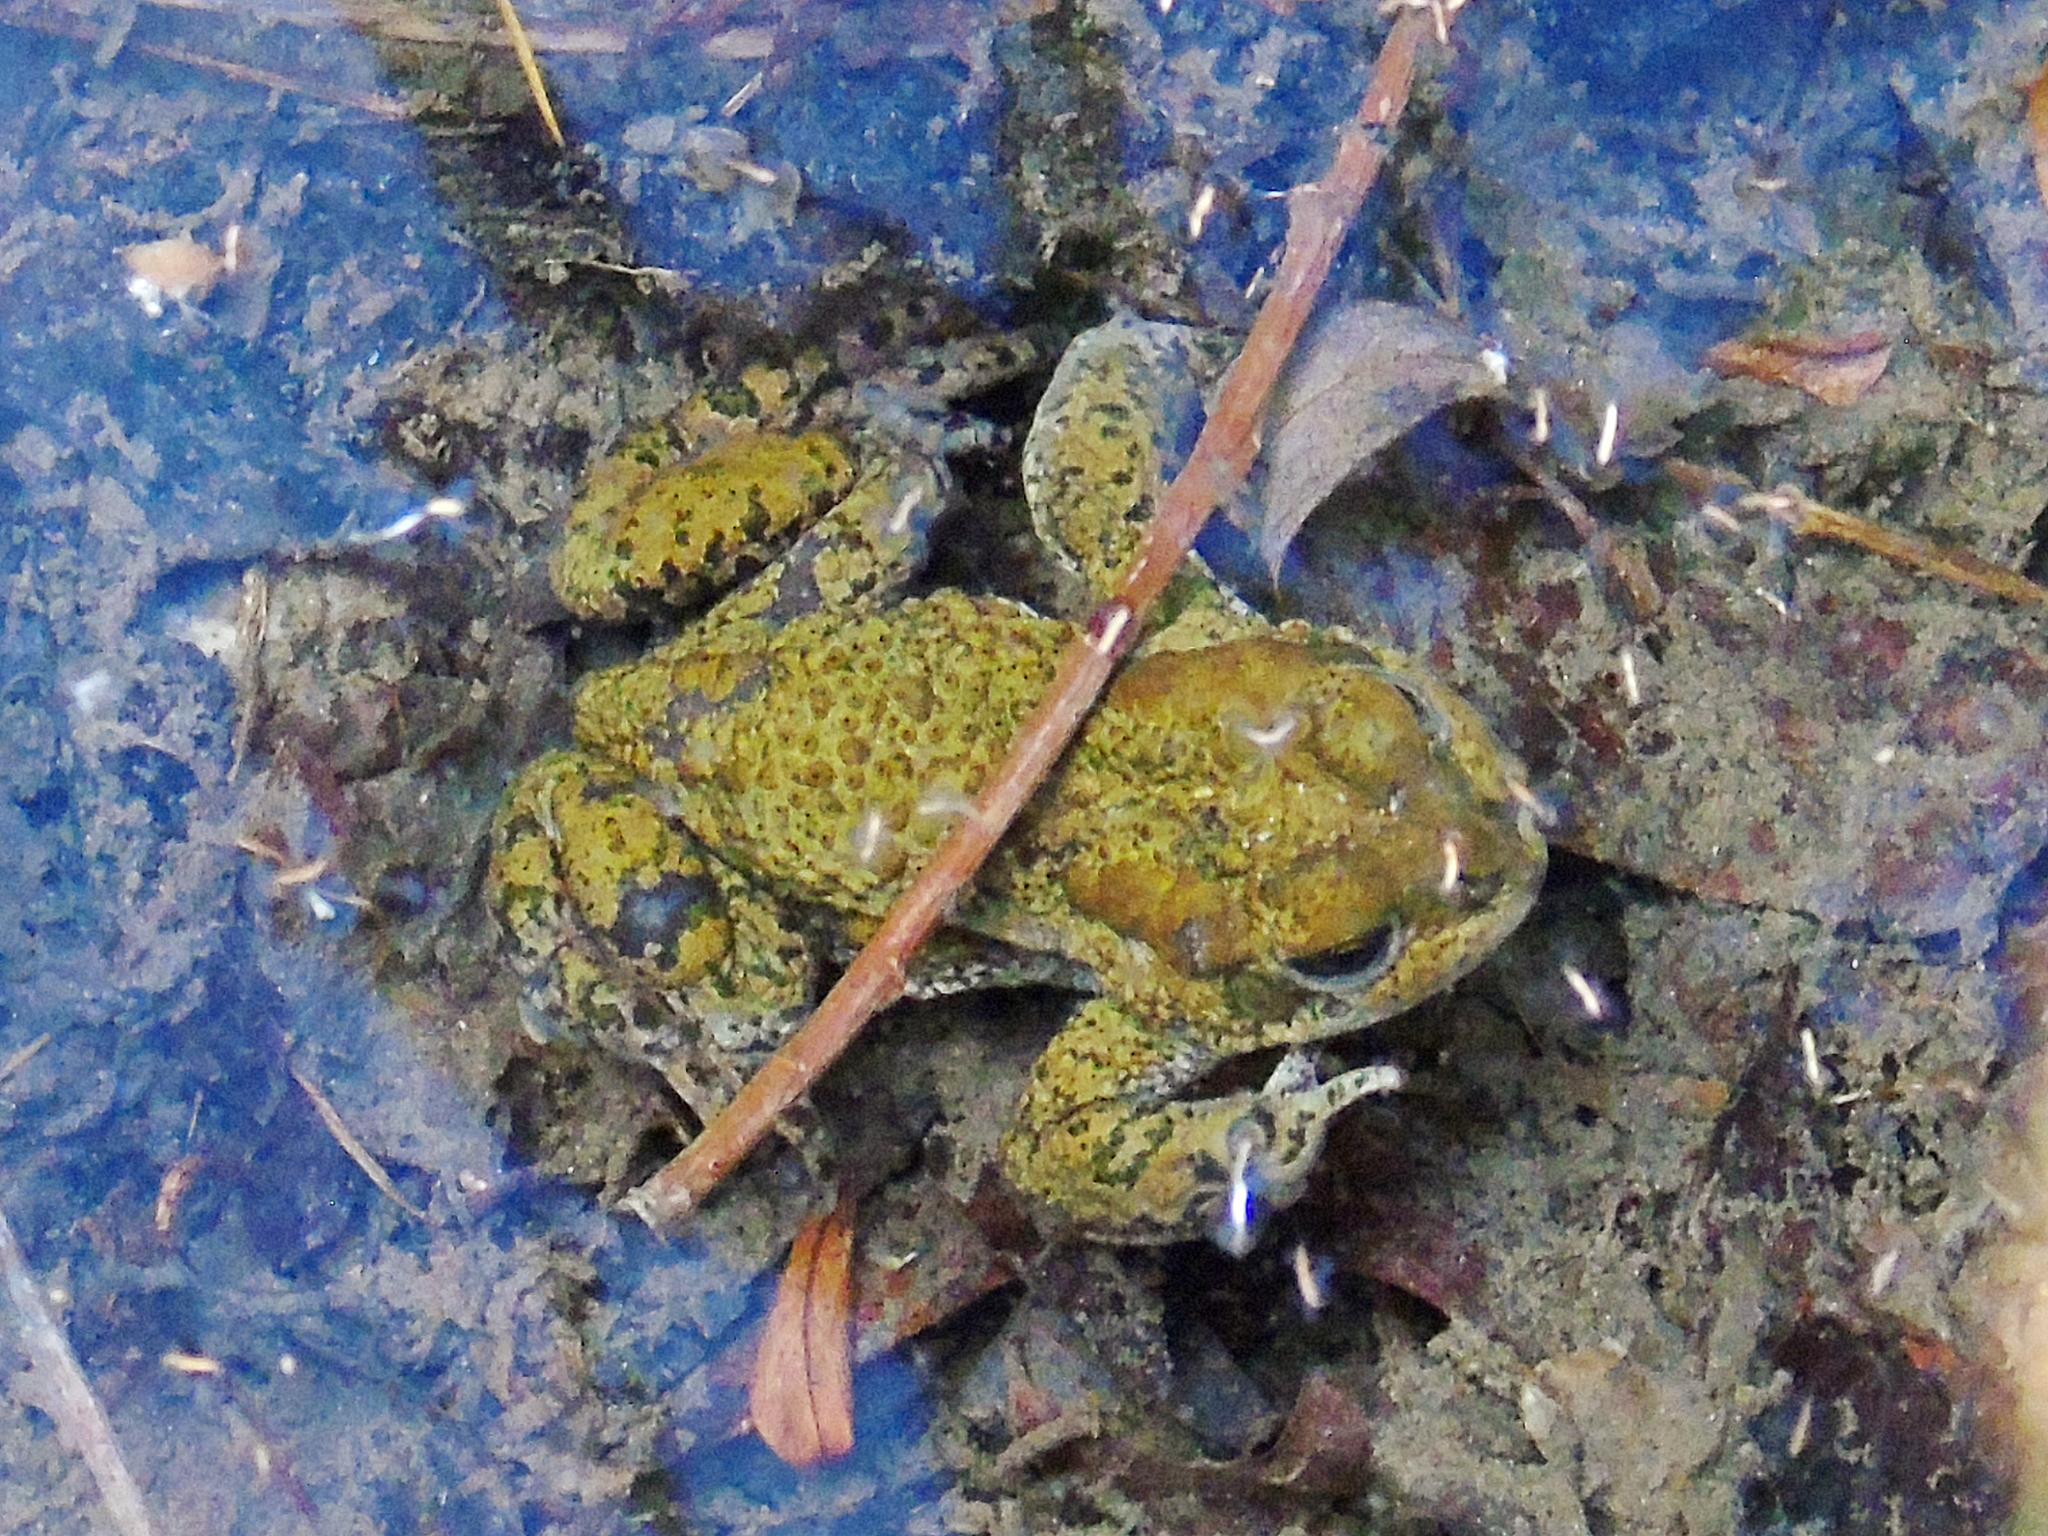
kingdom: Animalia
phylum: Chordata
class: Amphibia
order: Anura
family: Bufonidae
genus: Bufotes
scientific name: Bufotes latastii
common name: Ladakh toad
